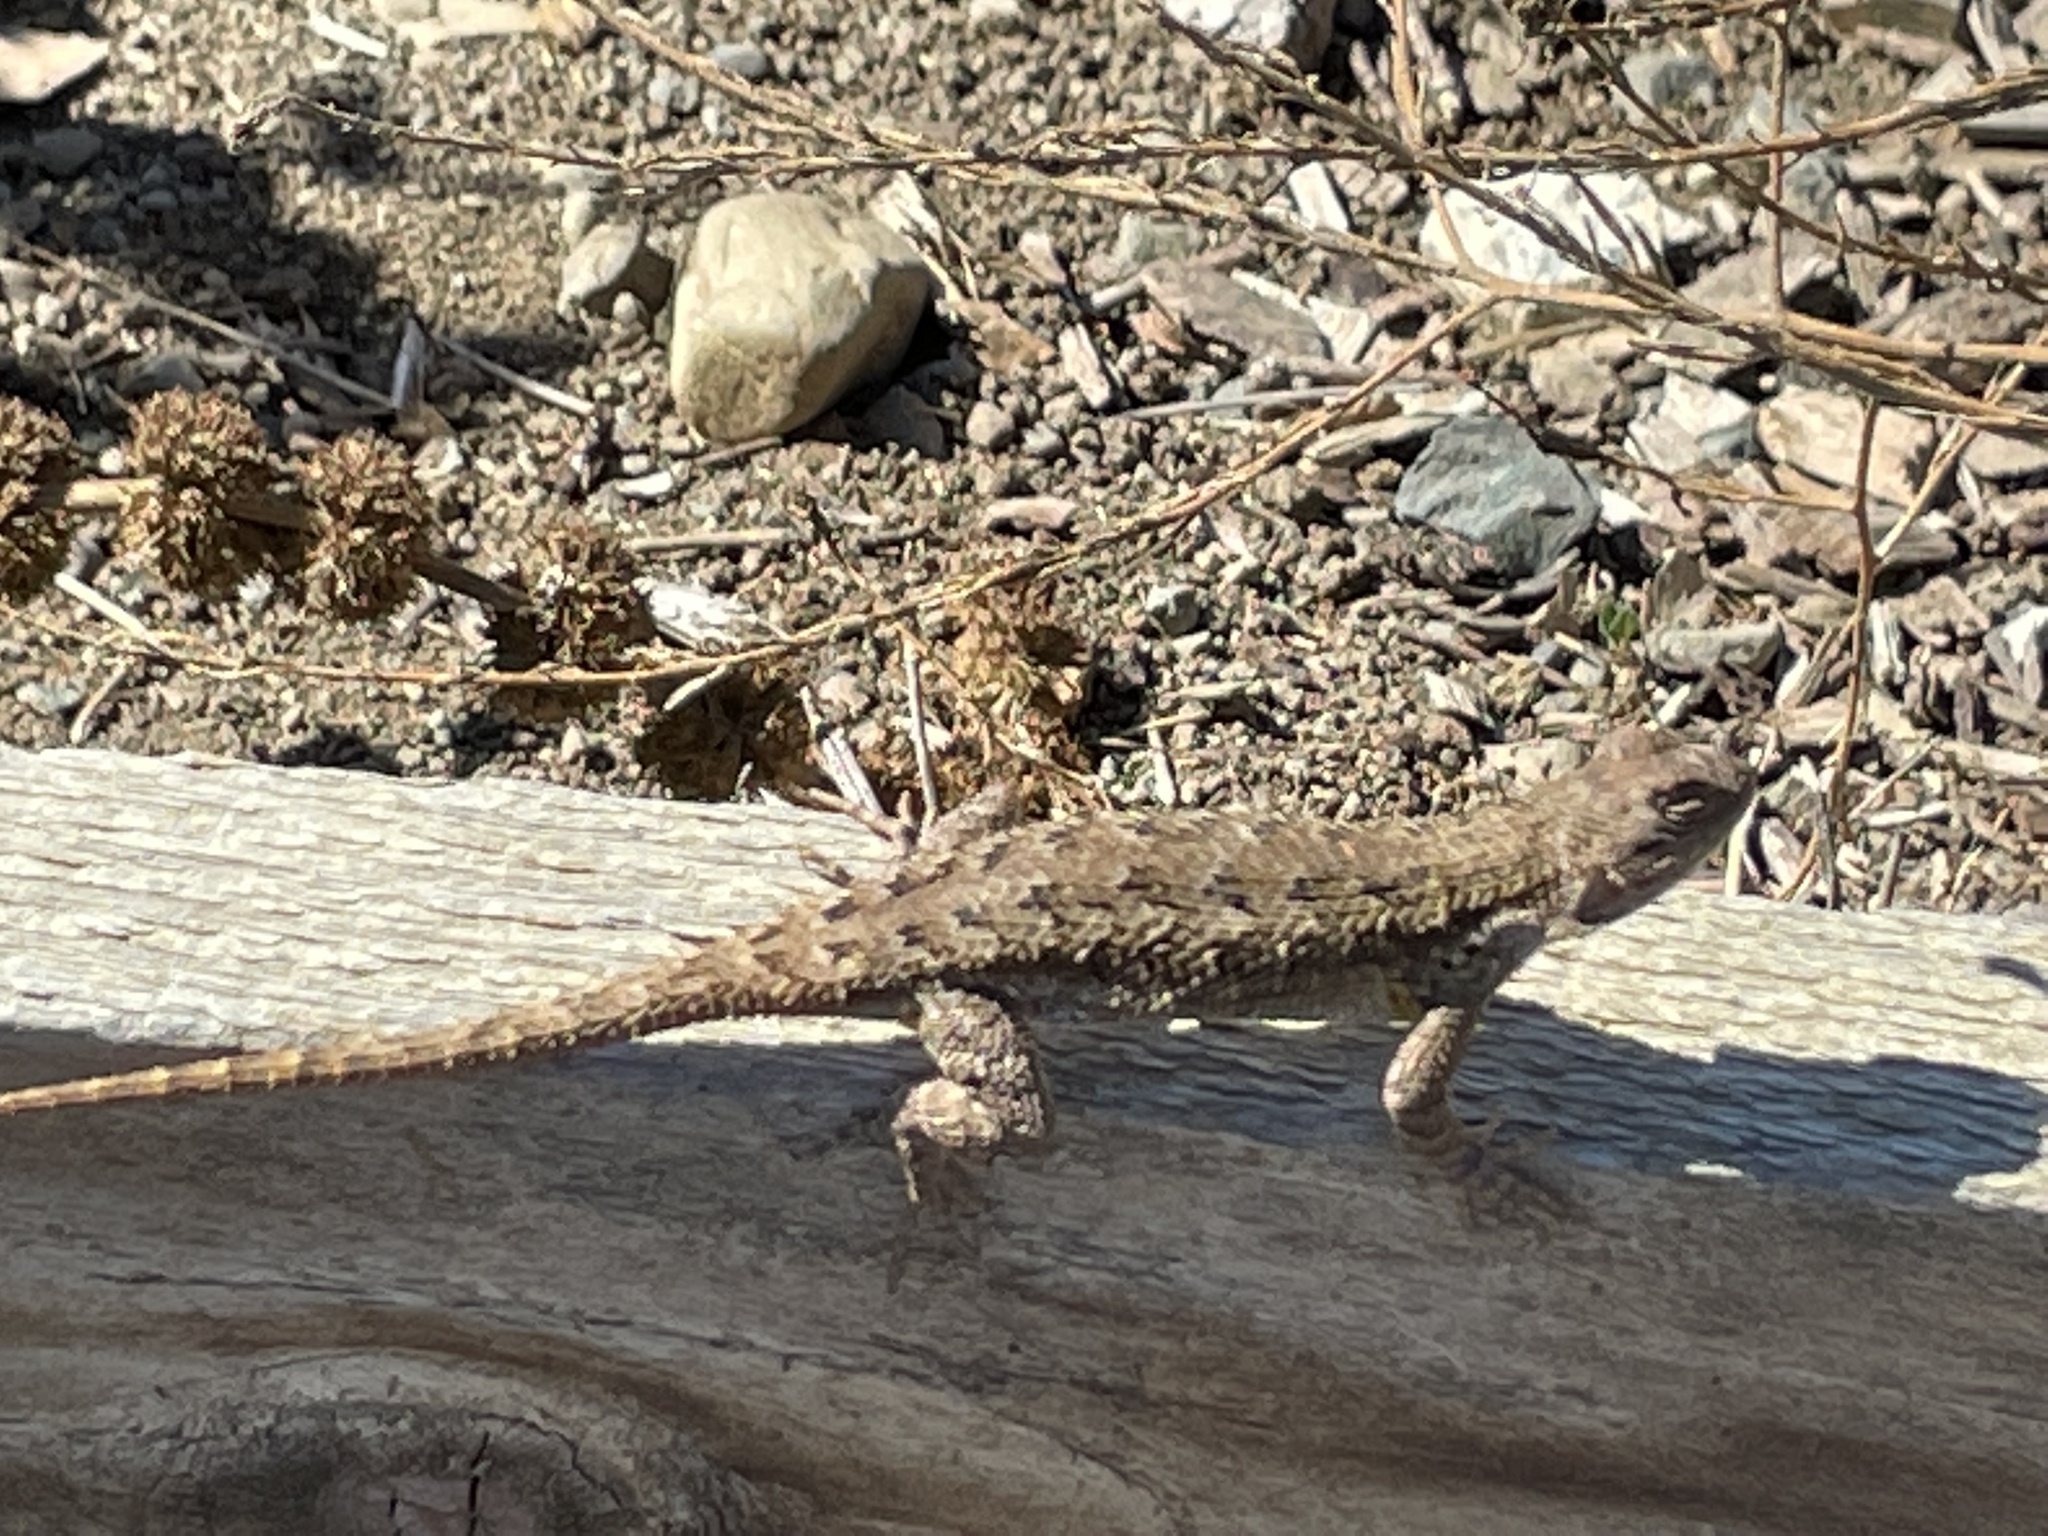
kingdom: Animalia
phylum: Chordata
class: Squamata
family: Phrynosomatidae
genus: Sceloporus
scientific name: Sceloporus occidentalis
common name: Western fence lizard
